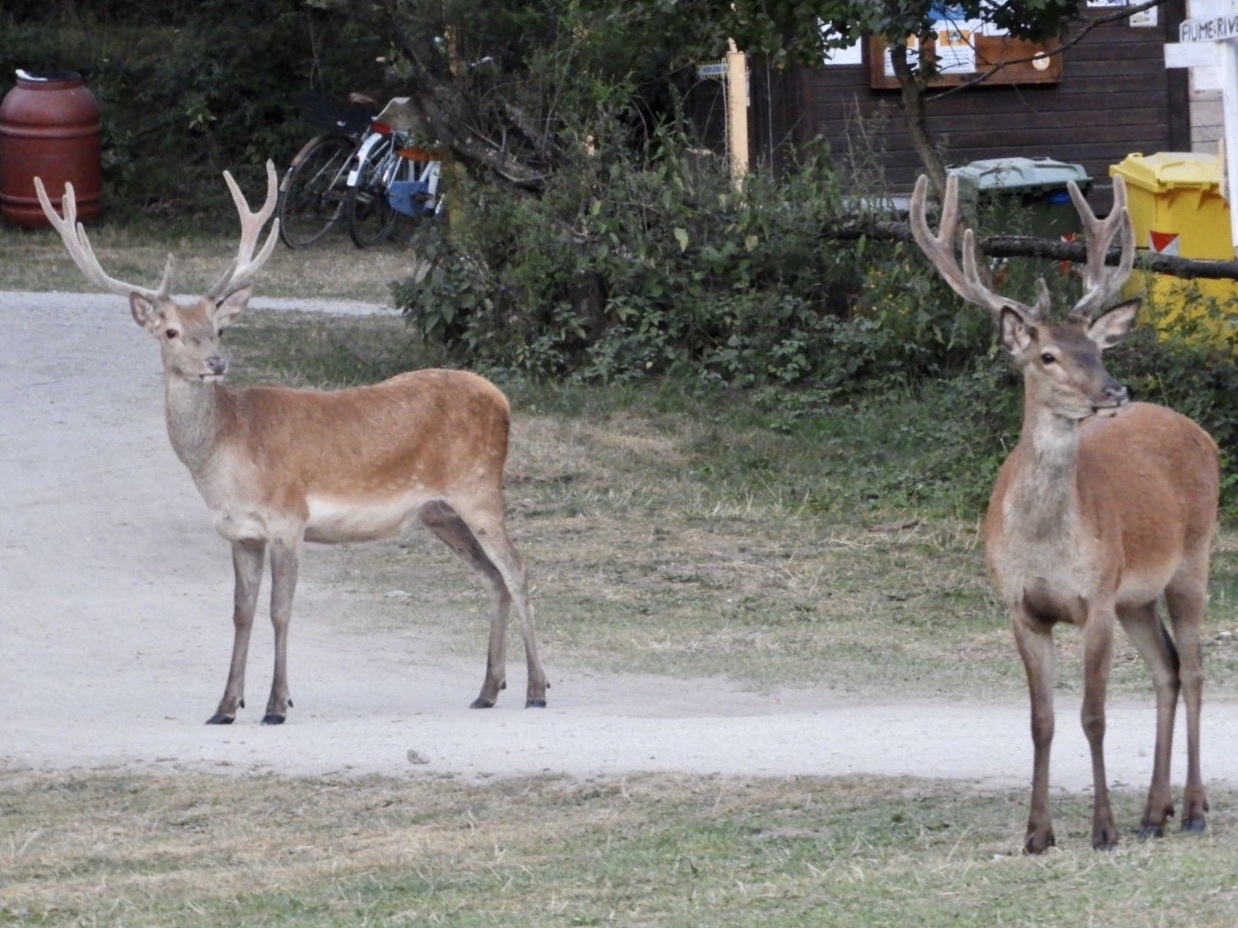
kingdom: Animalia
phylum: Chordata
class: Mammalia
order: Artiodactyla
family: Cervidae
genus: Cervus
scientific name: Cervus elaphus
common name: Red deer
